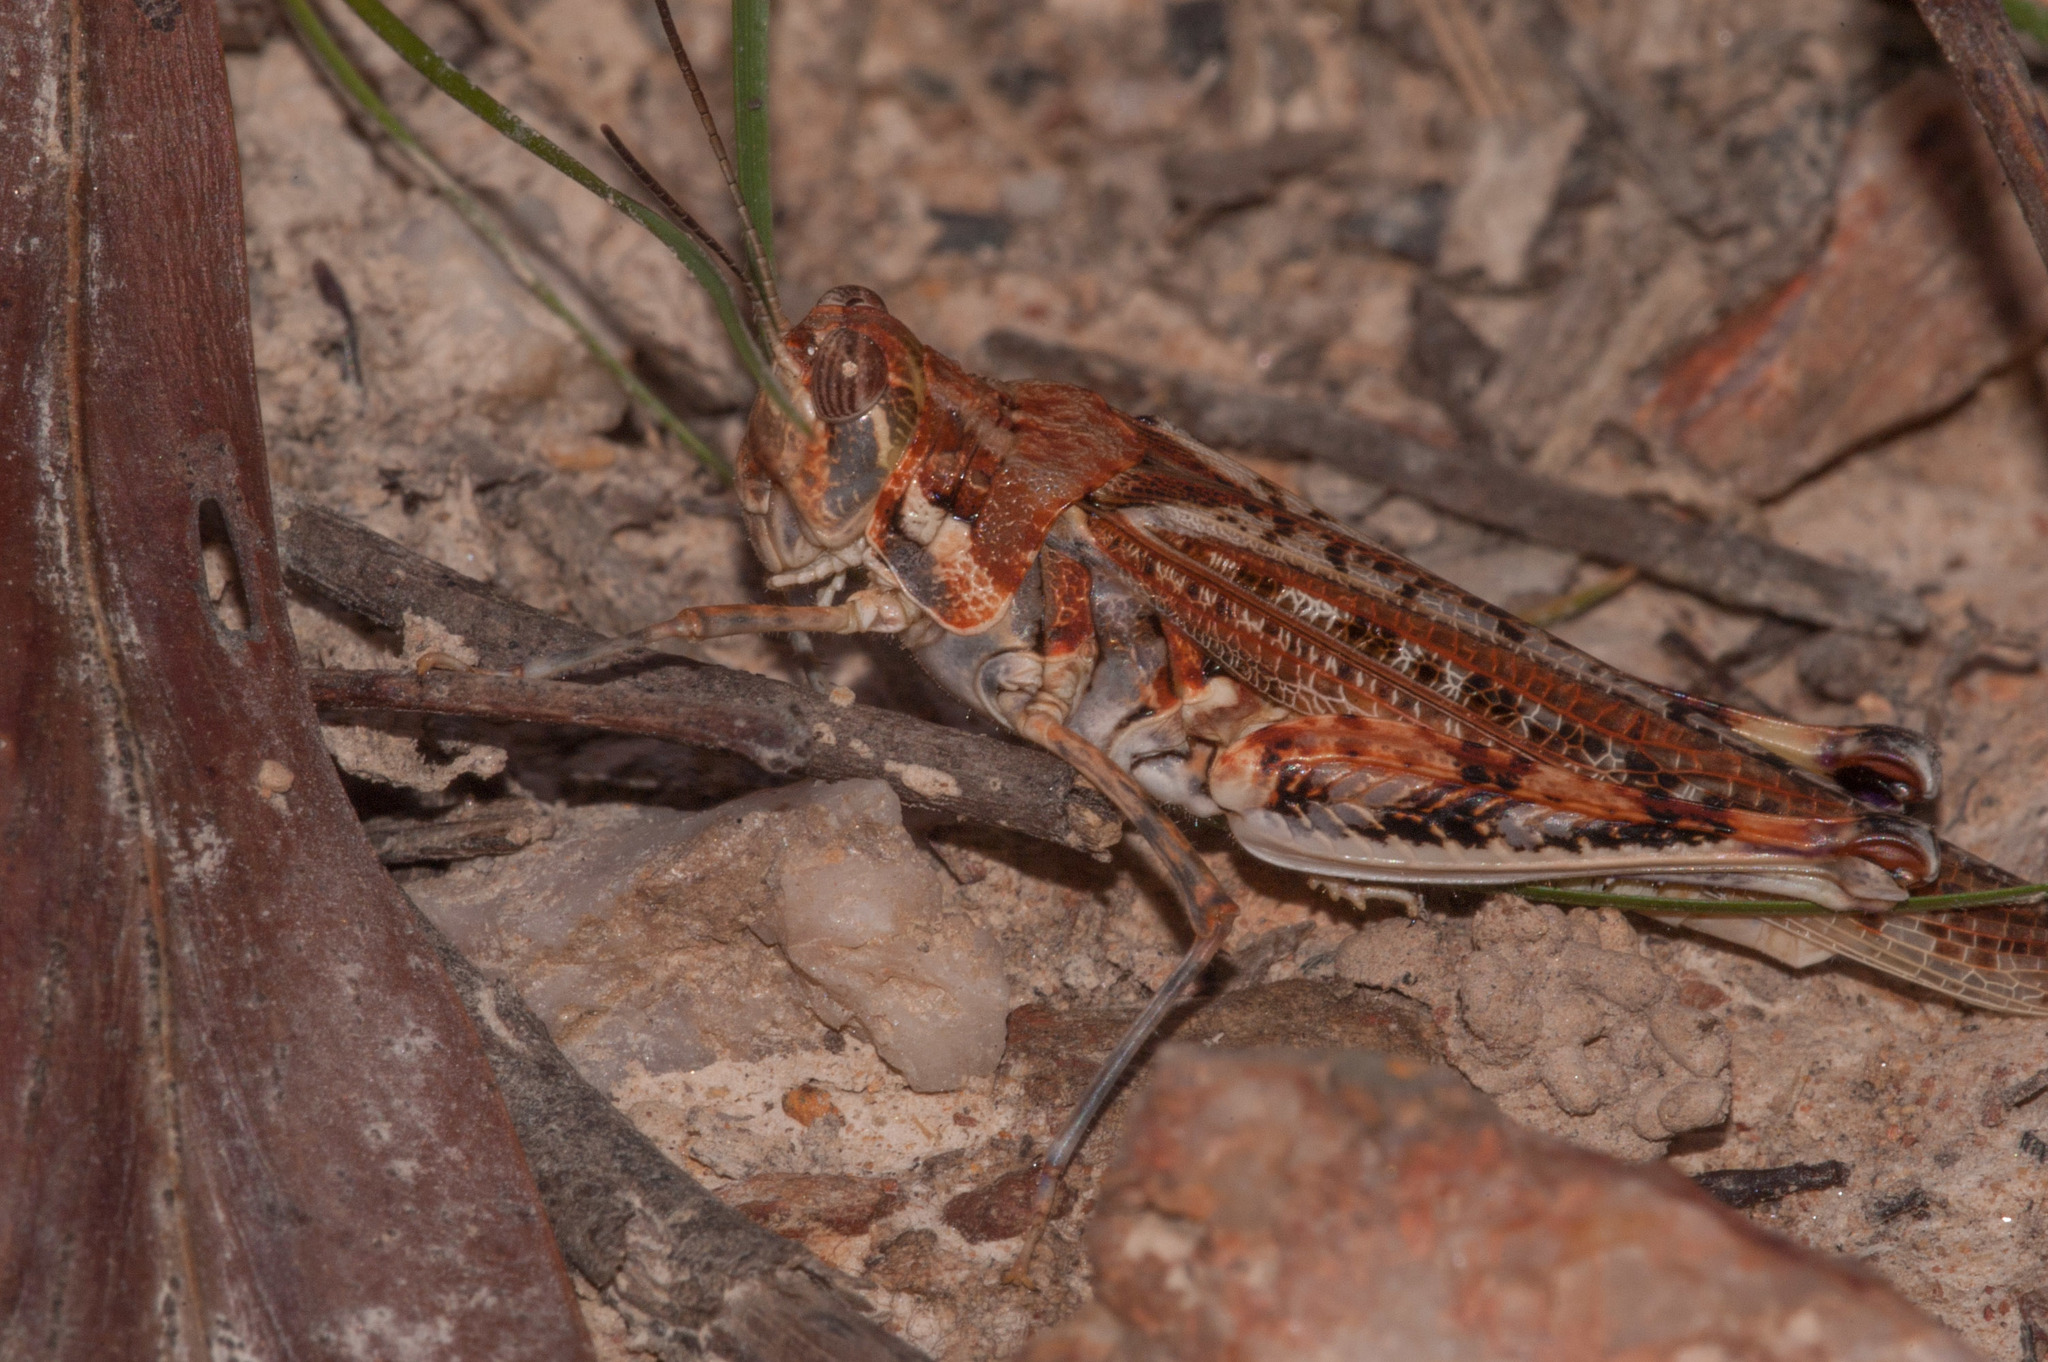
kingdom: Animalia
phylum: Arthropoda
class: Insecta
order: Orthoptera
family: Acrididae
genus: Urnisa
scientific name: Urnisa guttulosa
